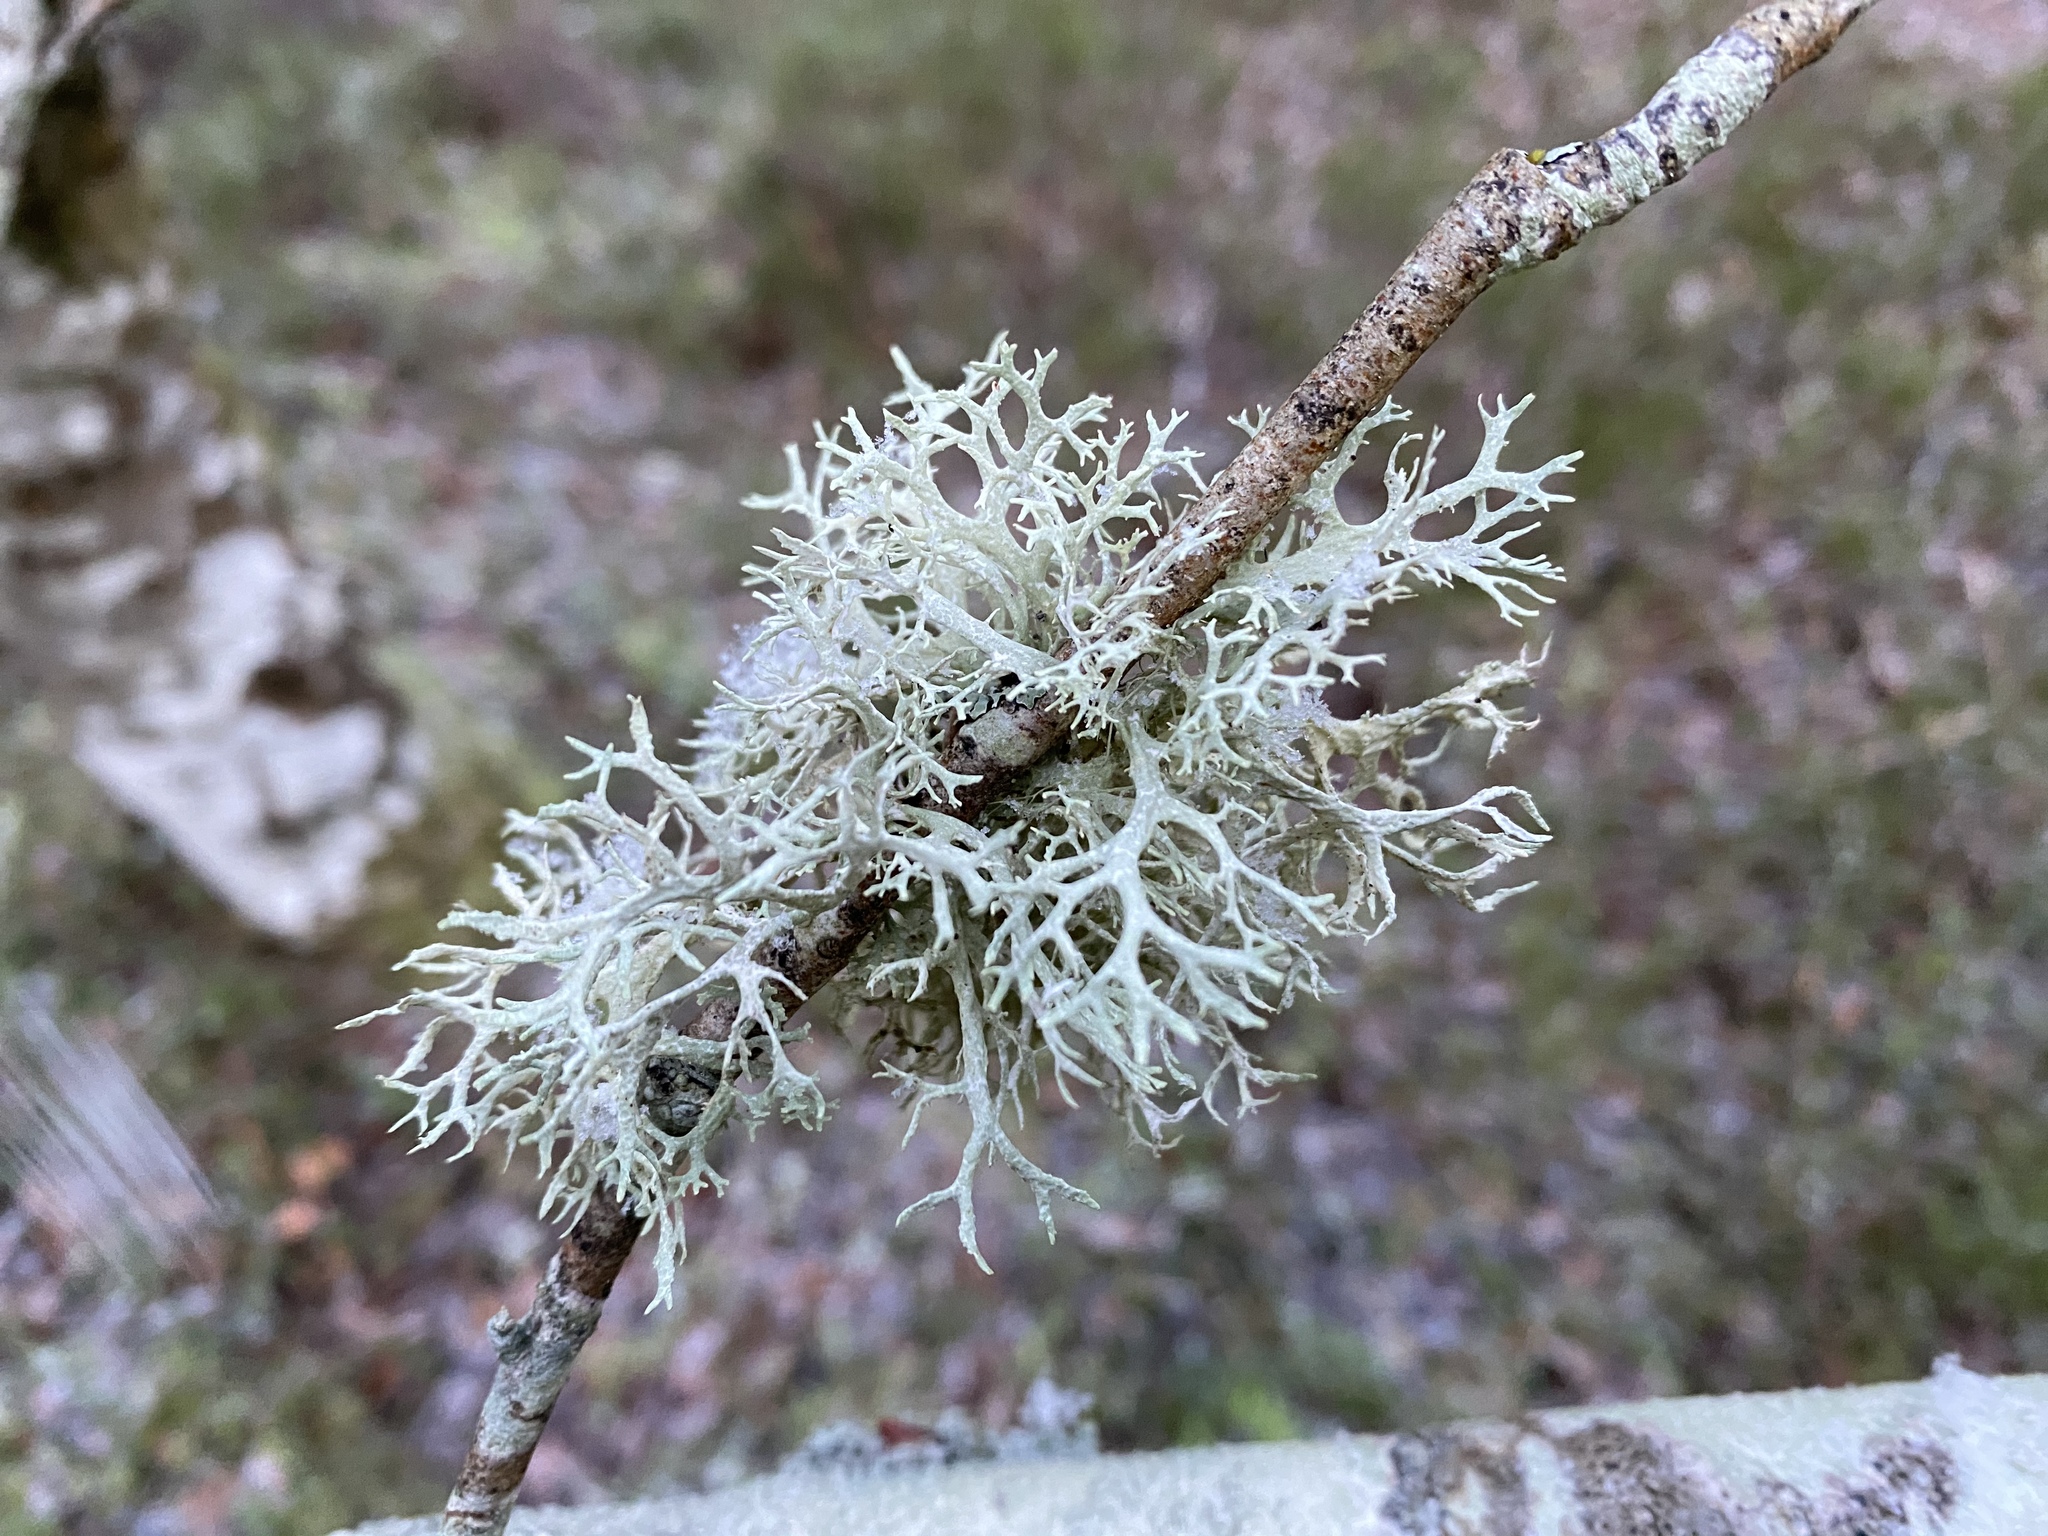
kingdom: Fungi
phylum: Ascomycota
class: Lecanoromycetes
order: Lecanorales
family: Parmeliaceae
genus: Evernia
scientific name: Evernia prunastri
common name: Oak moss
